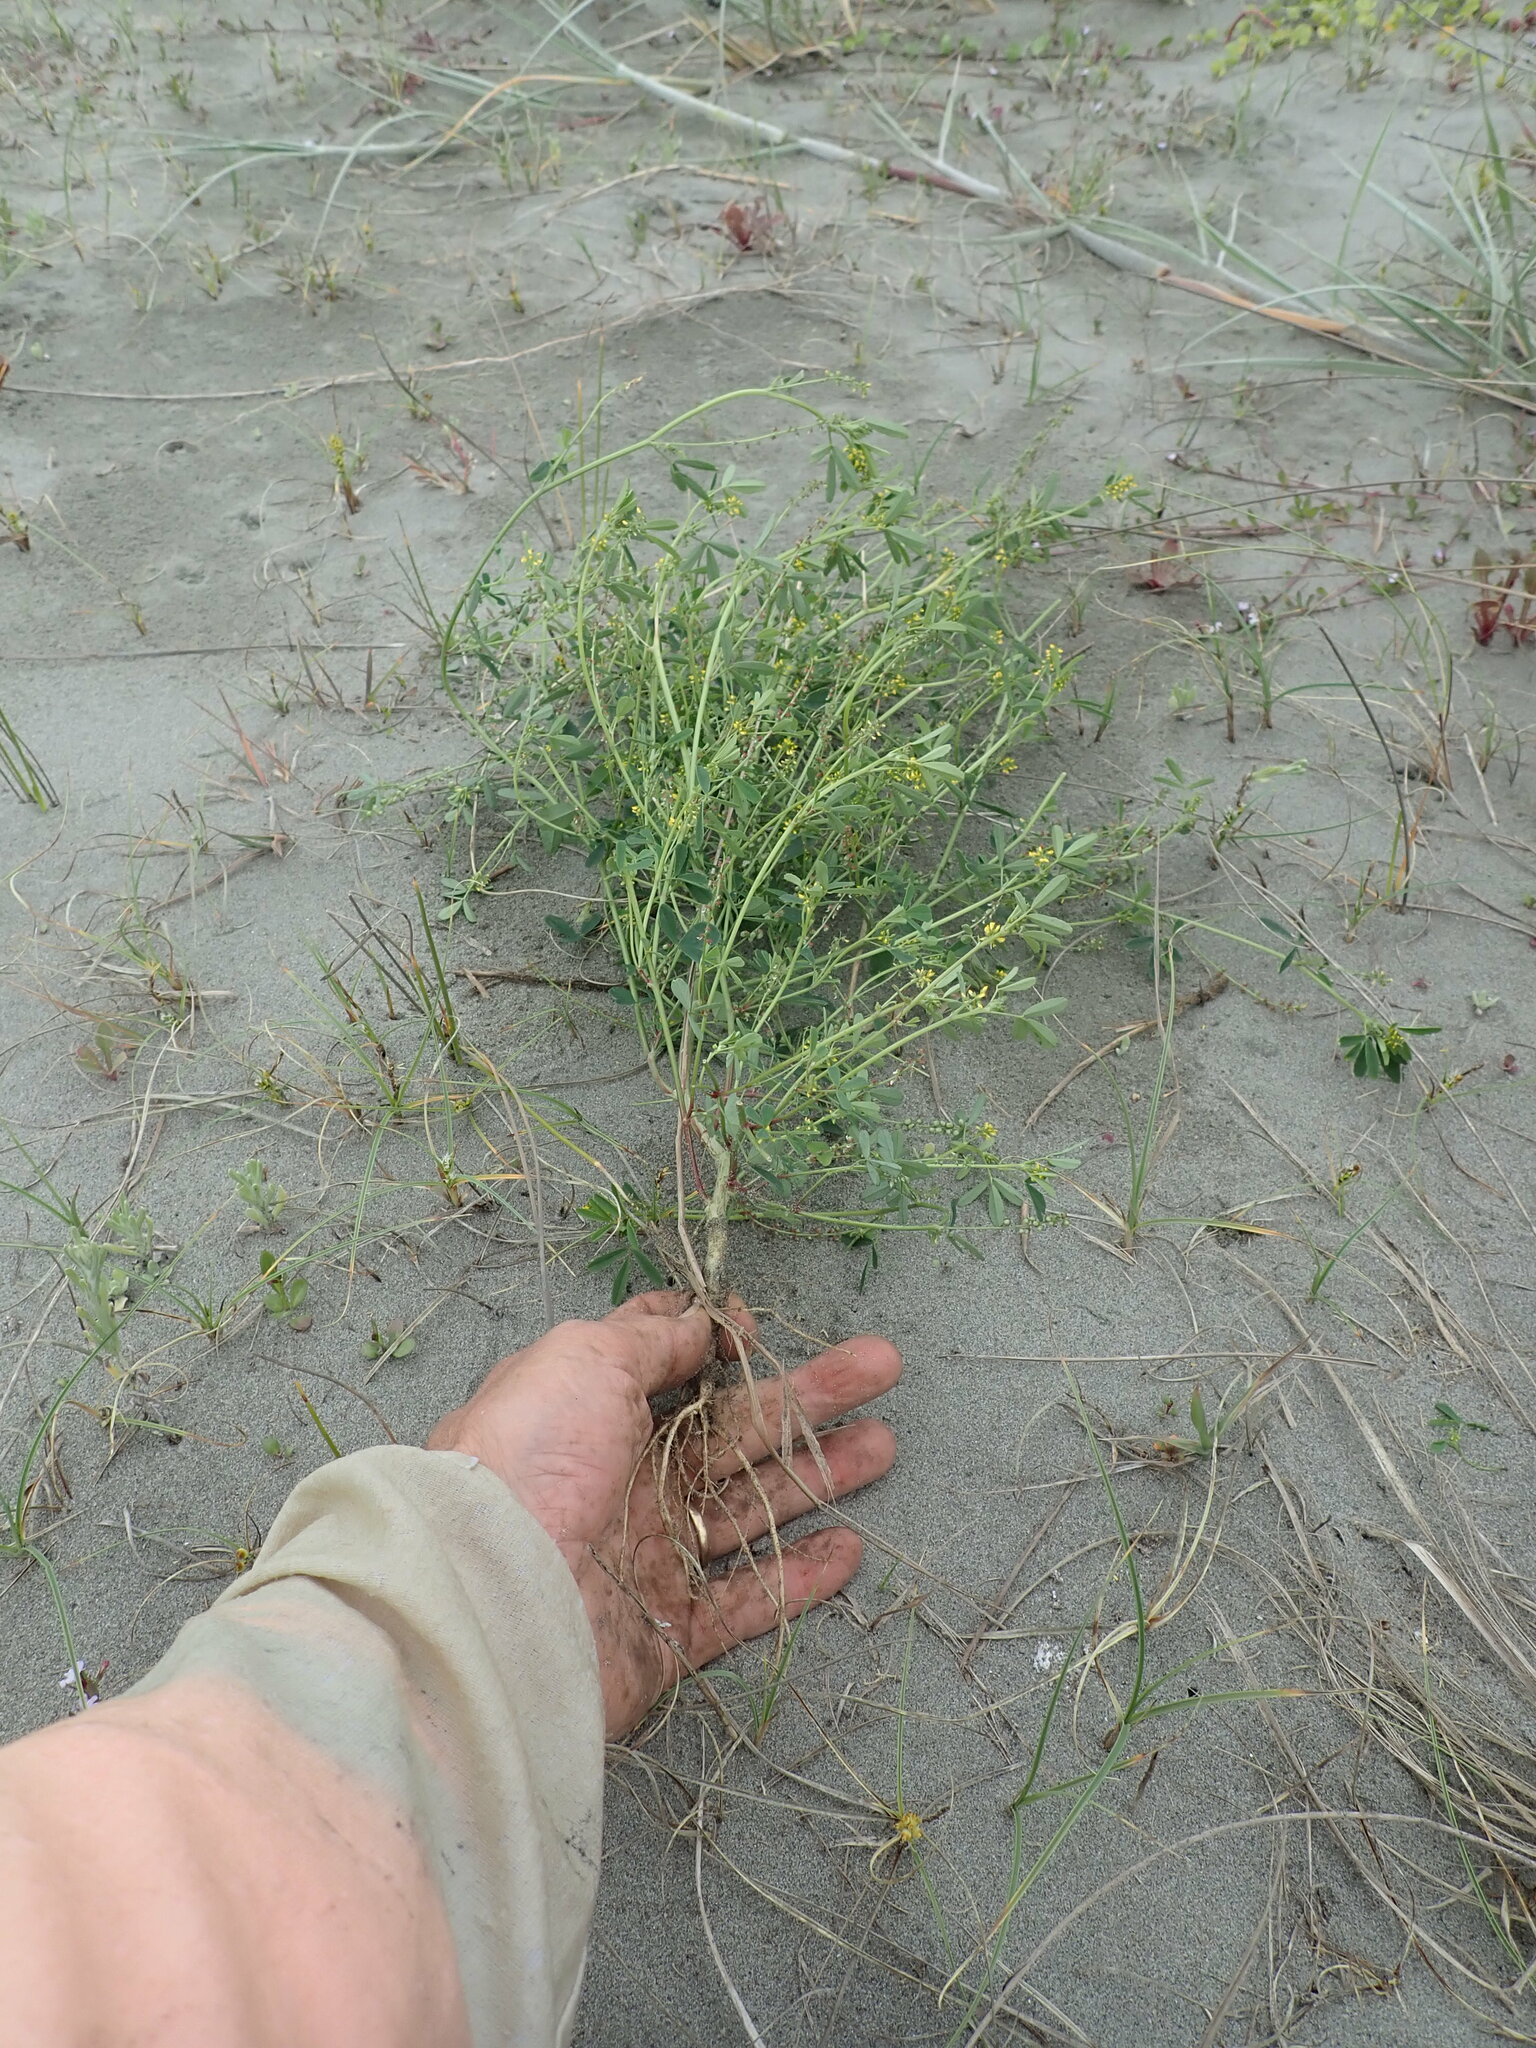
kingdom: Plantae
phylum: Tracheophyta
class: Magnoliopsida
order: Fabales
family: Fabaceae
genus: Melilotus
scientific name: Melilotus indicus
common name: Small melilot
